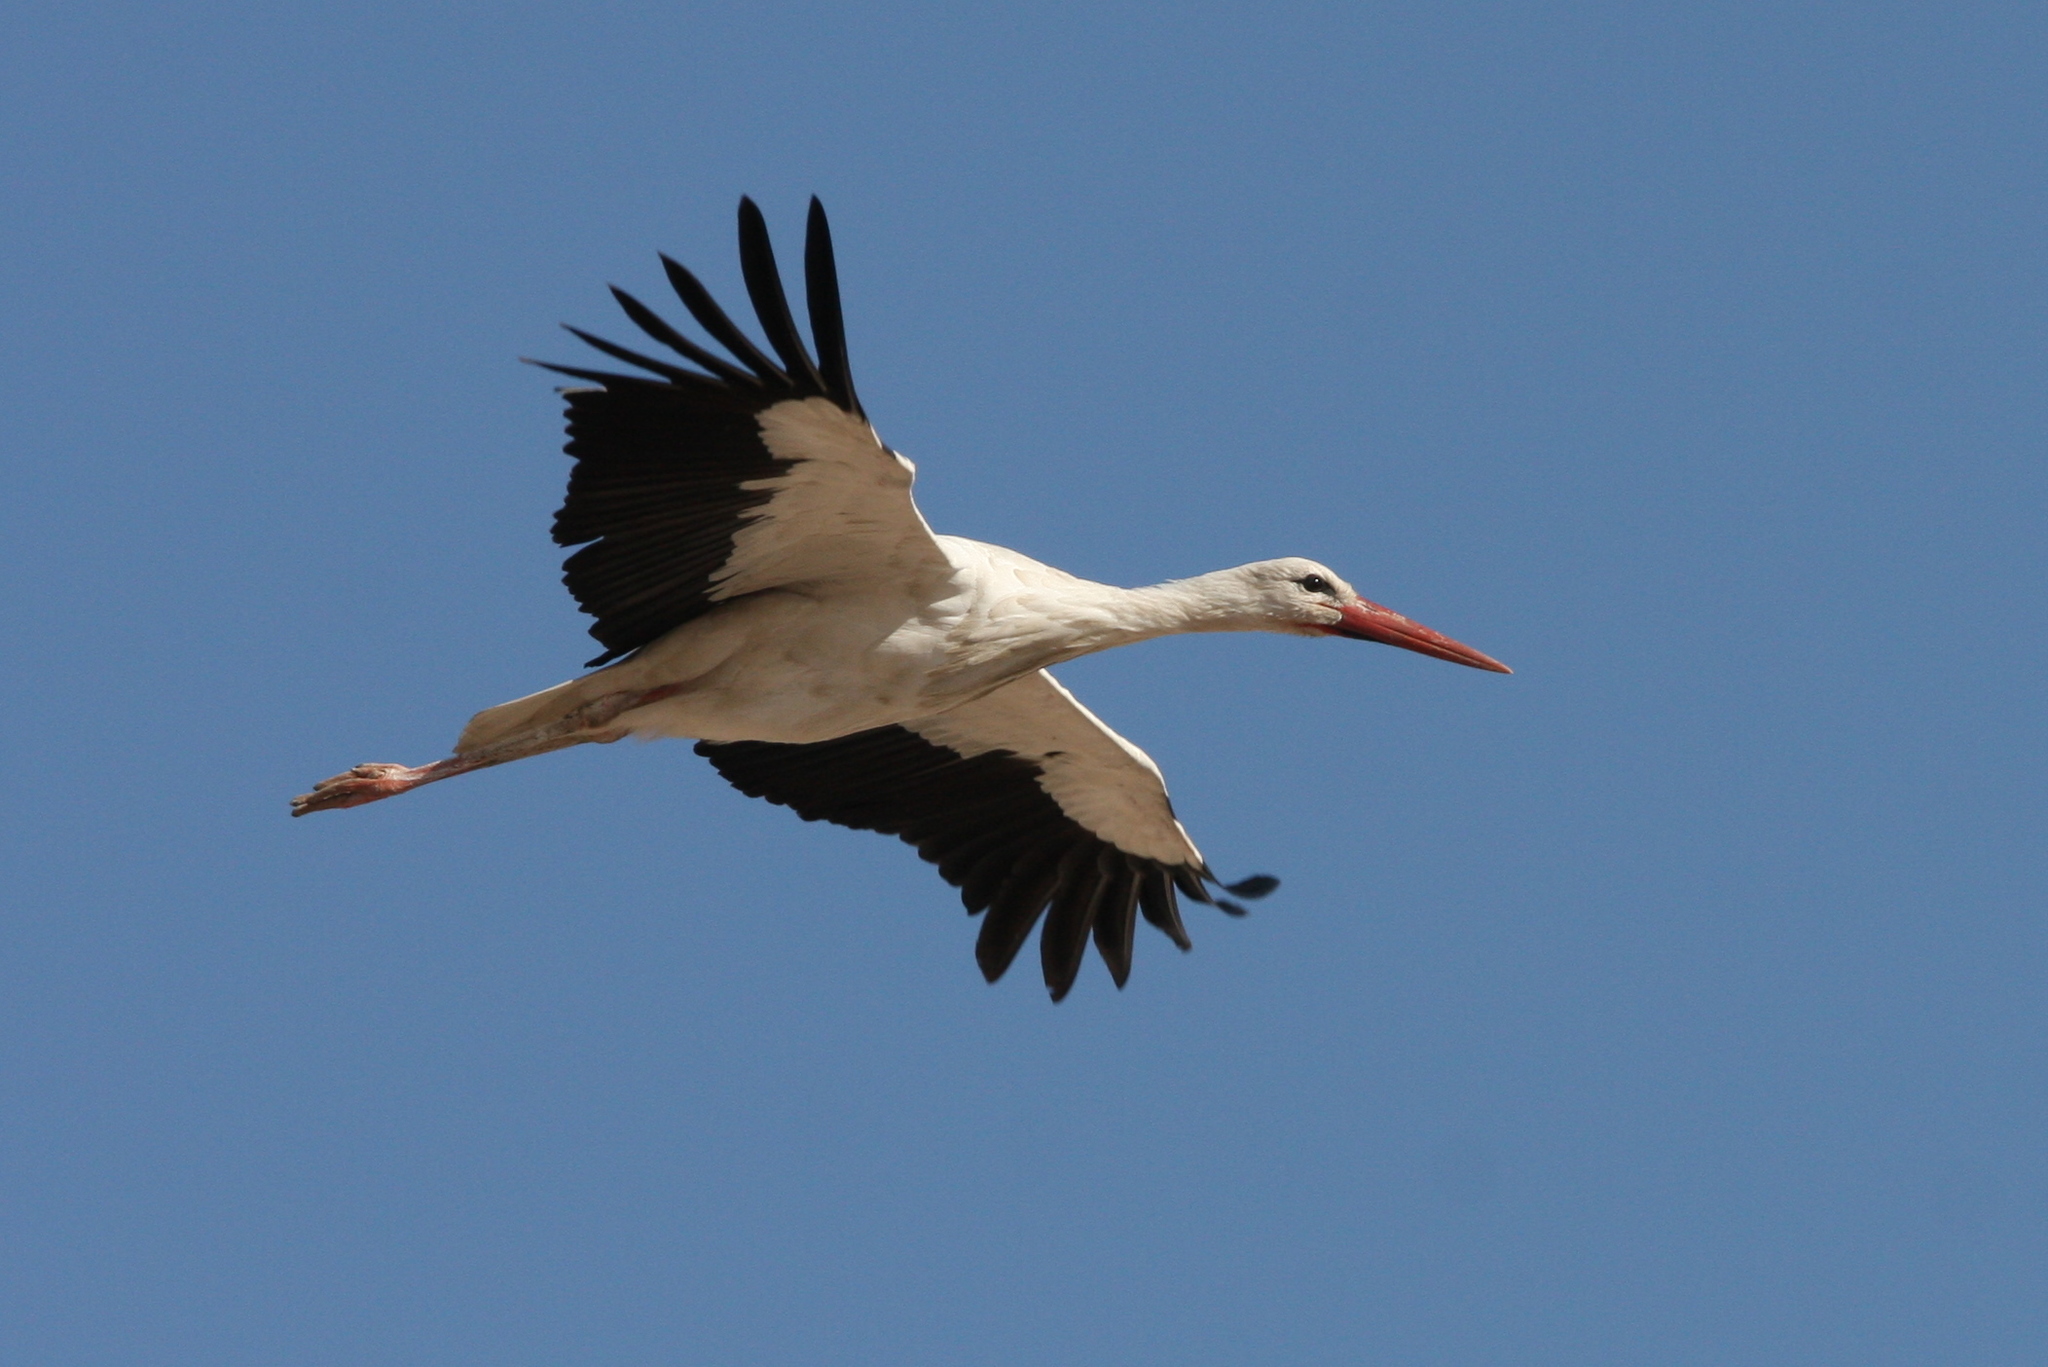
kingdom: Animalia
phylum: Chordata
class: Aves
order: Ciconiiformes
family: Ciconiidae
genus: Ciconia
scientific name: Ciconia ciconia
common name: White stork
